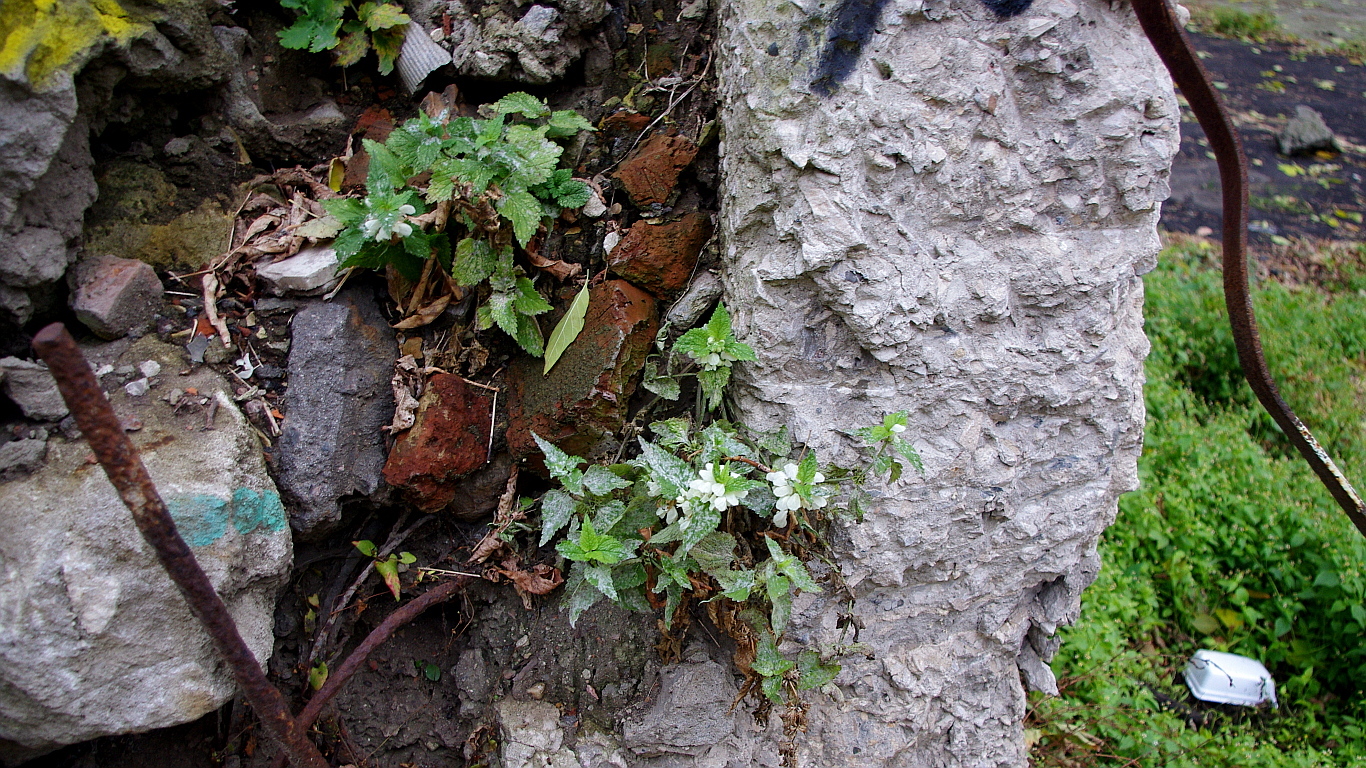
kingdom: Plantae
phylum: Tracheophyta
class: Magnoliopsida
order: Lamiales
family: Lamiaceae
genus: Lamium
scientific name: Lamium album
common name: White dead-nettle
